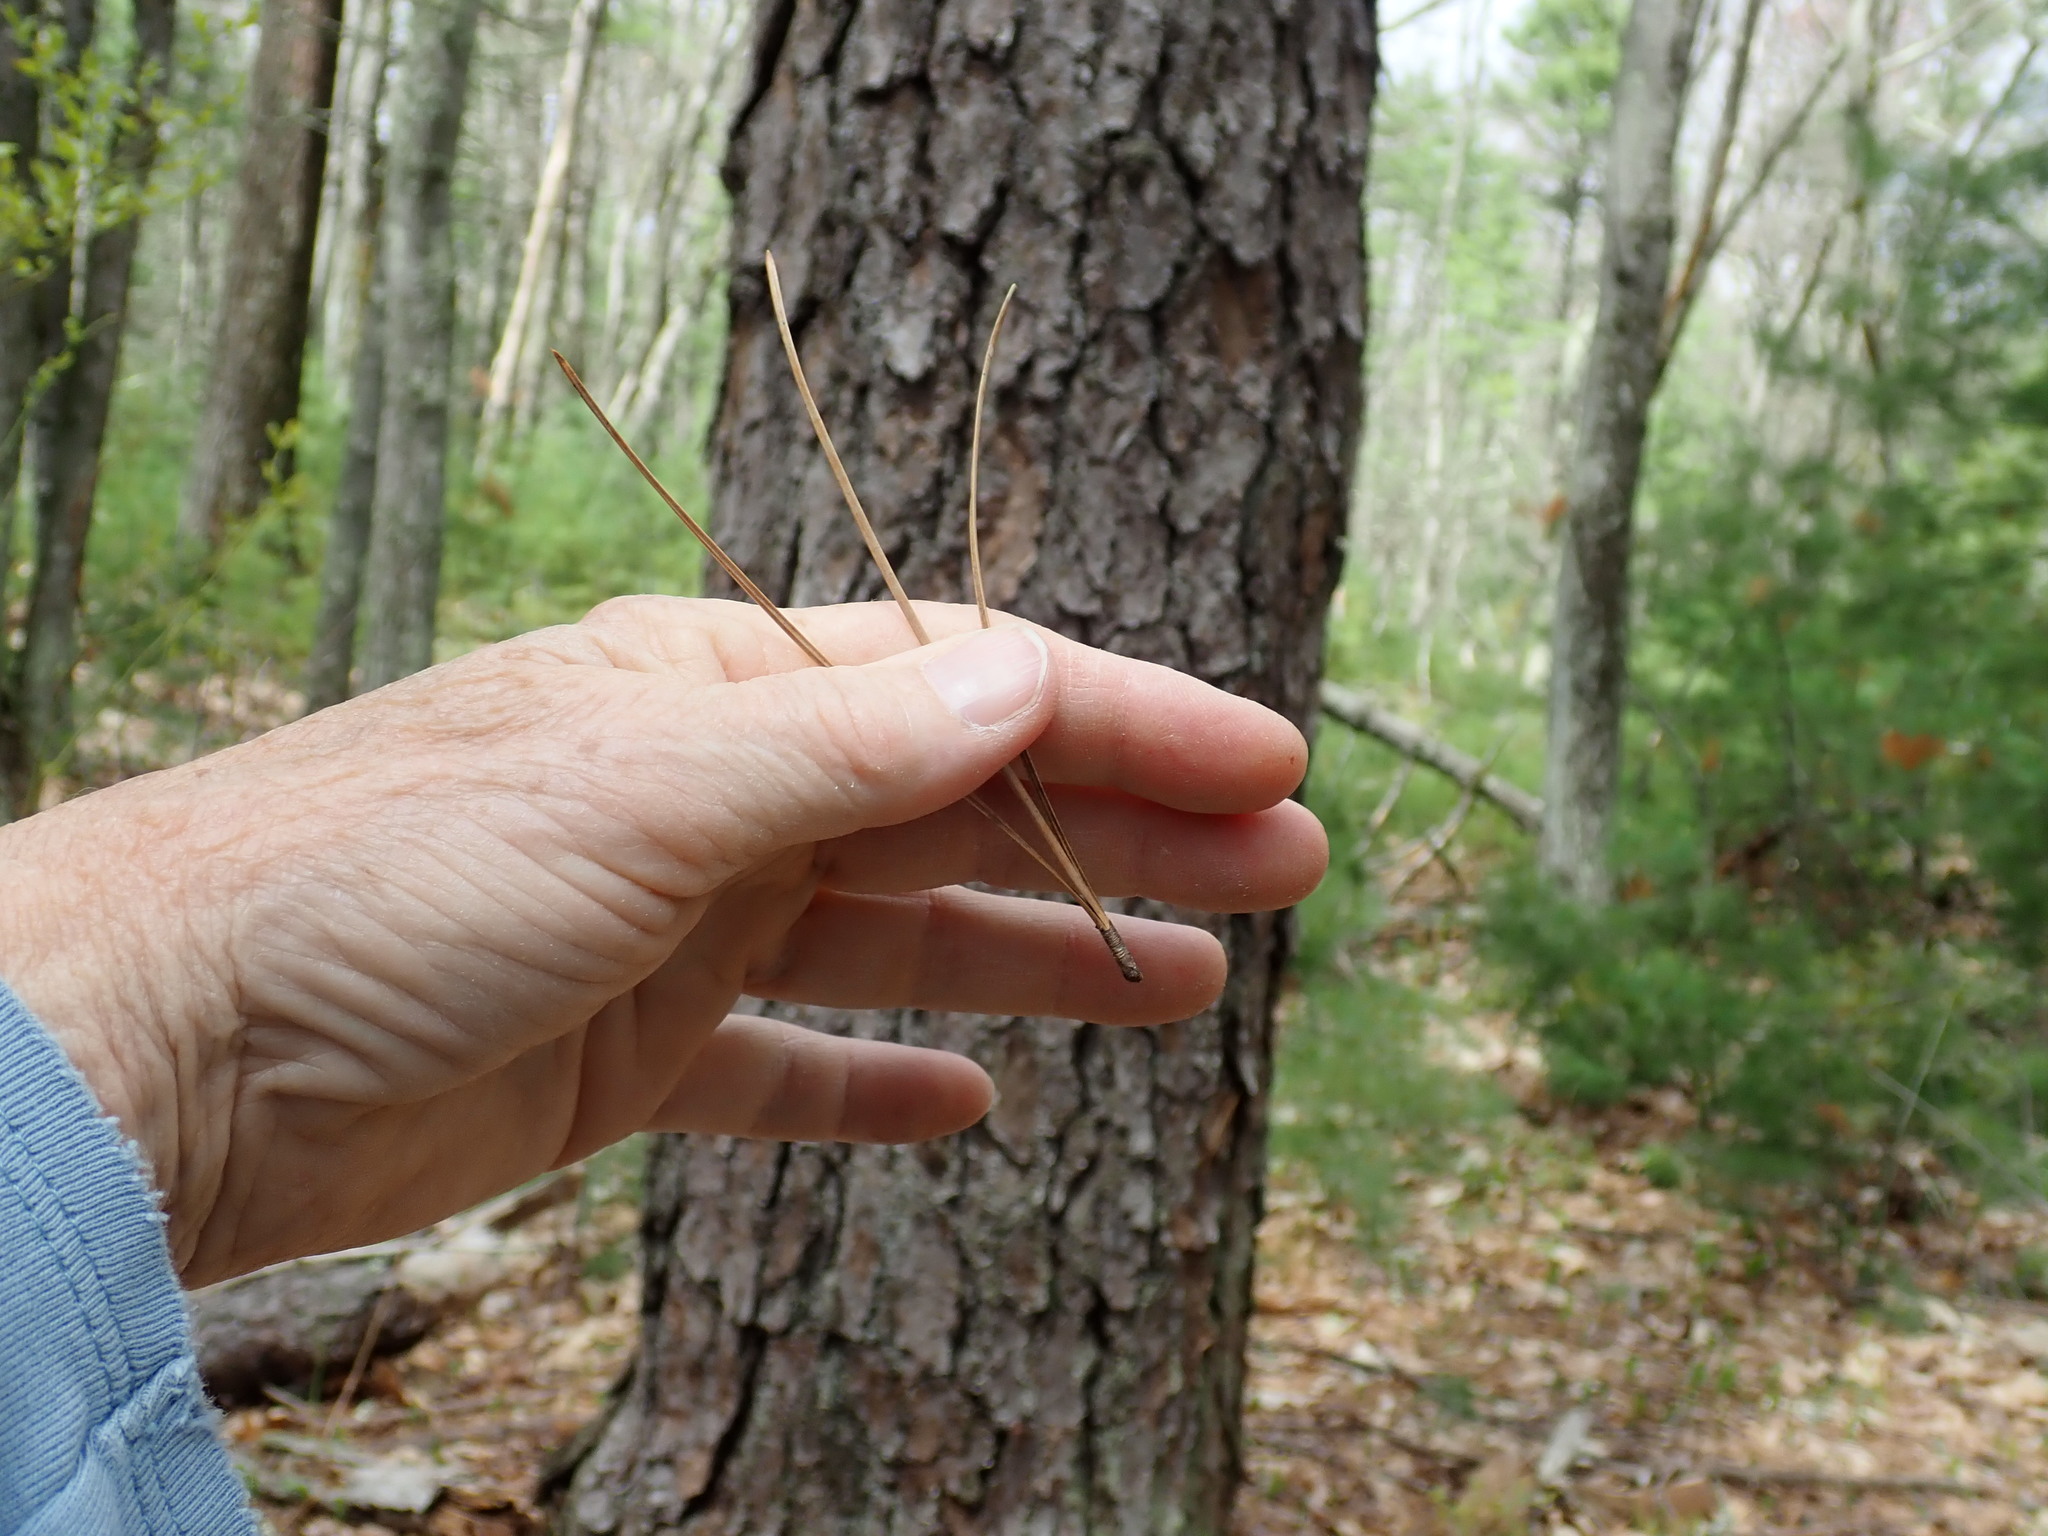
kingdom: Plantae
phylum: Tracheophyta
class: Pinopsida
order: Pinales
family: Pinaceae
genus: Pinus
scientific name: Pinus rigida
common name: Pitch pine
